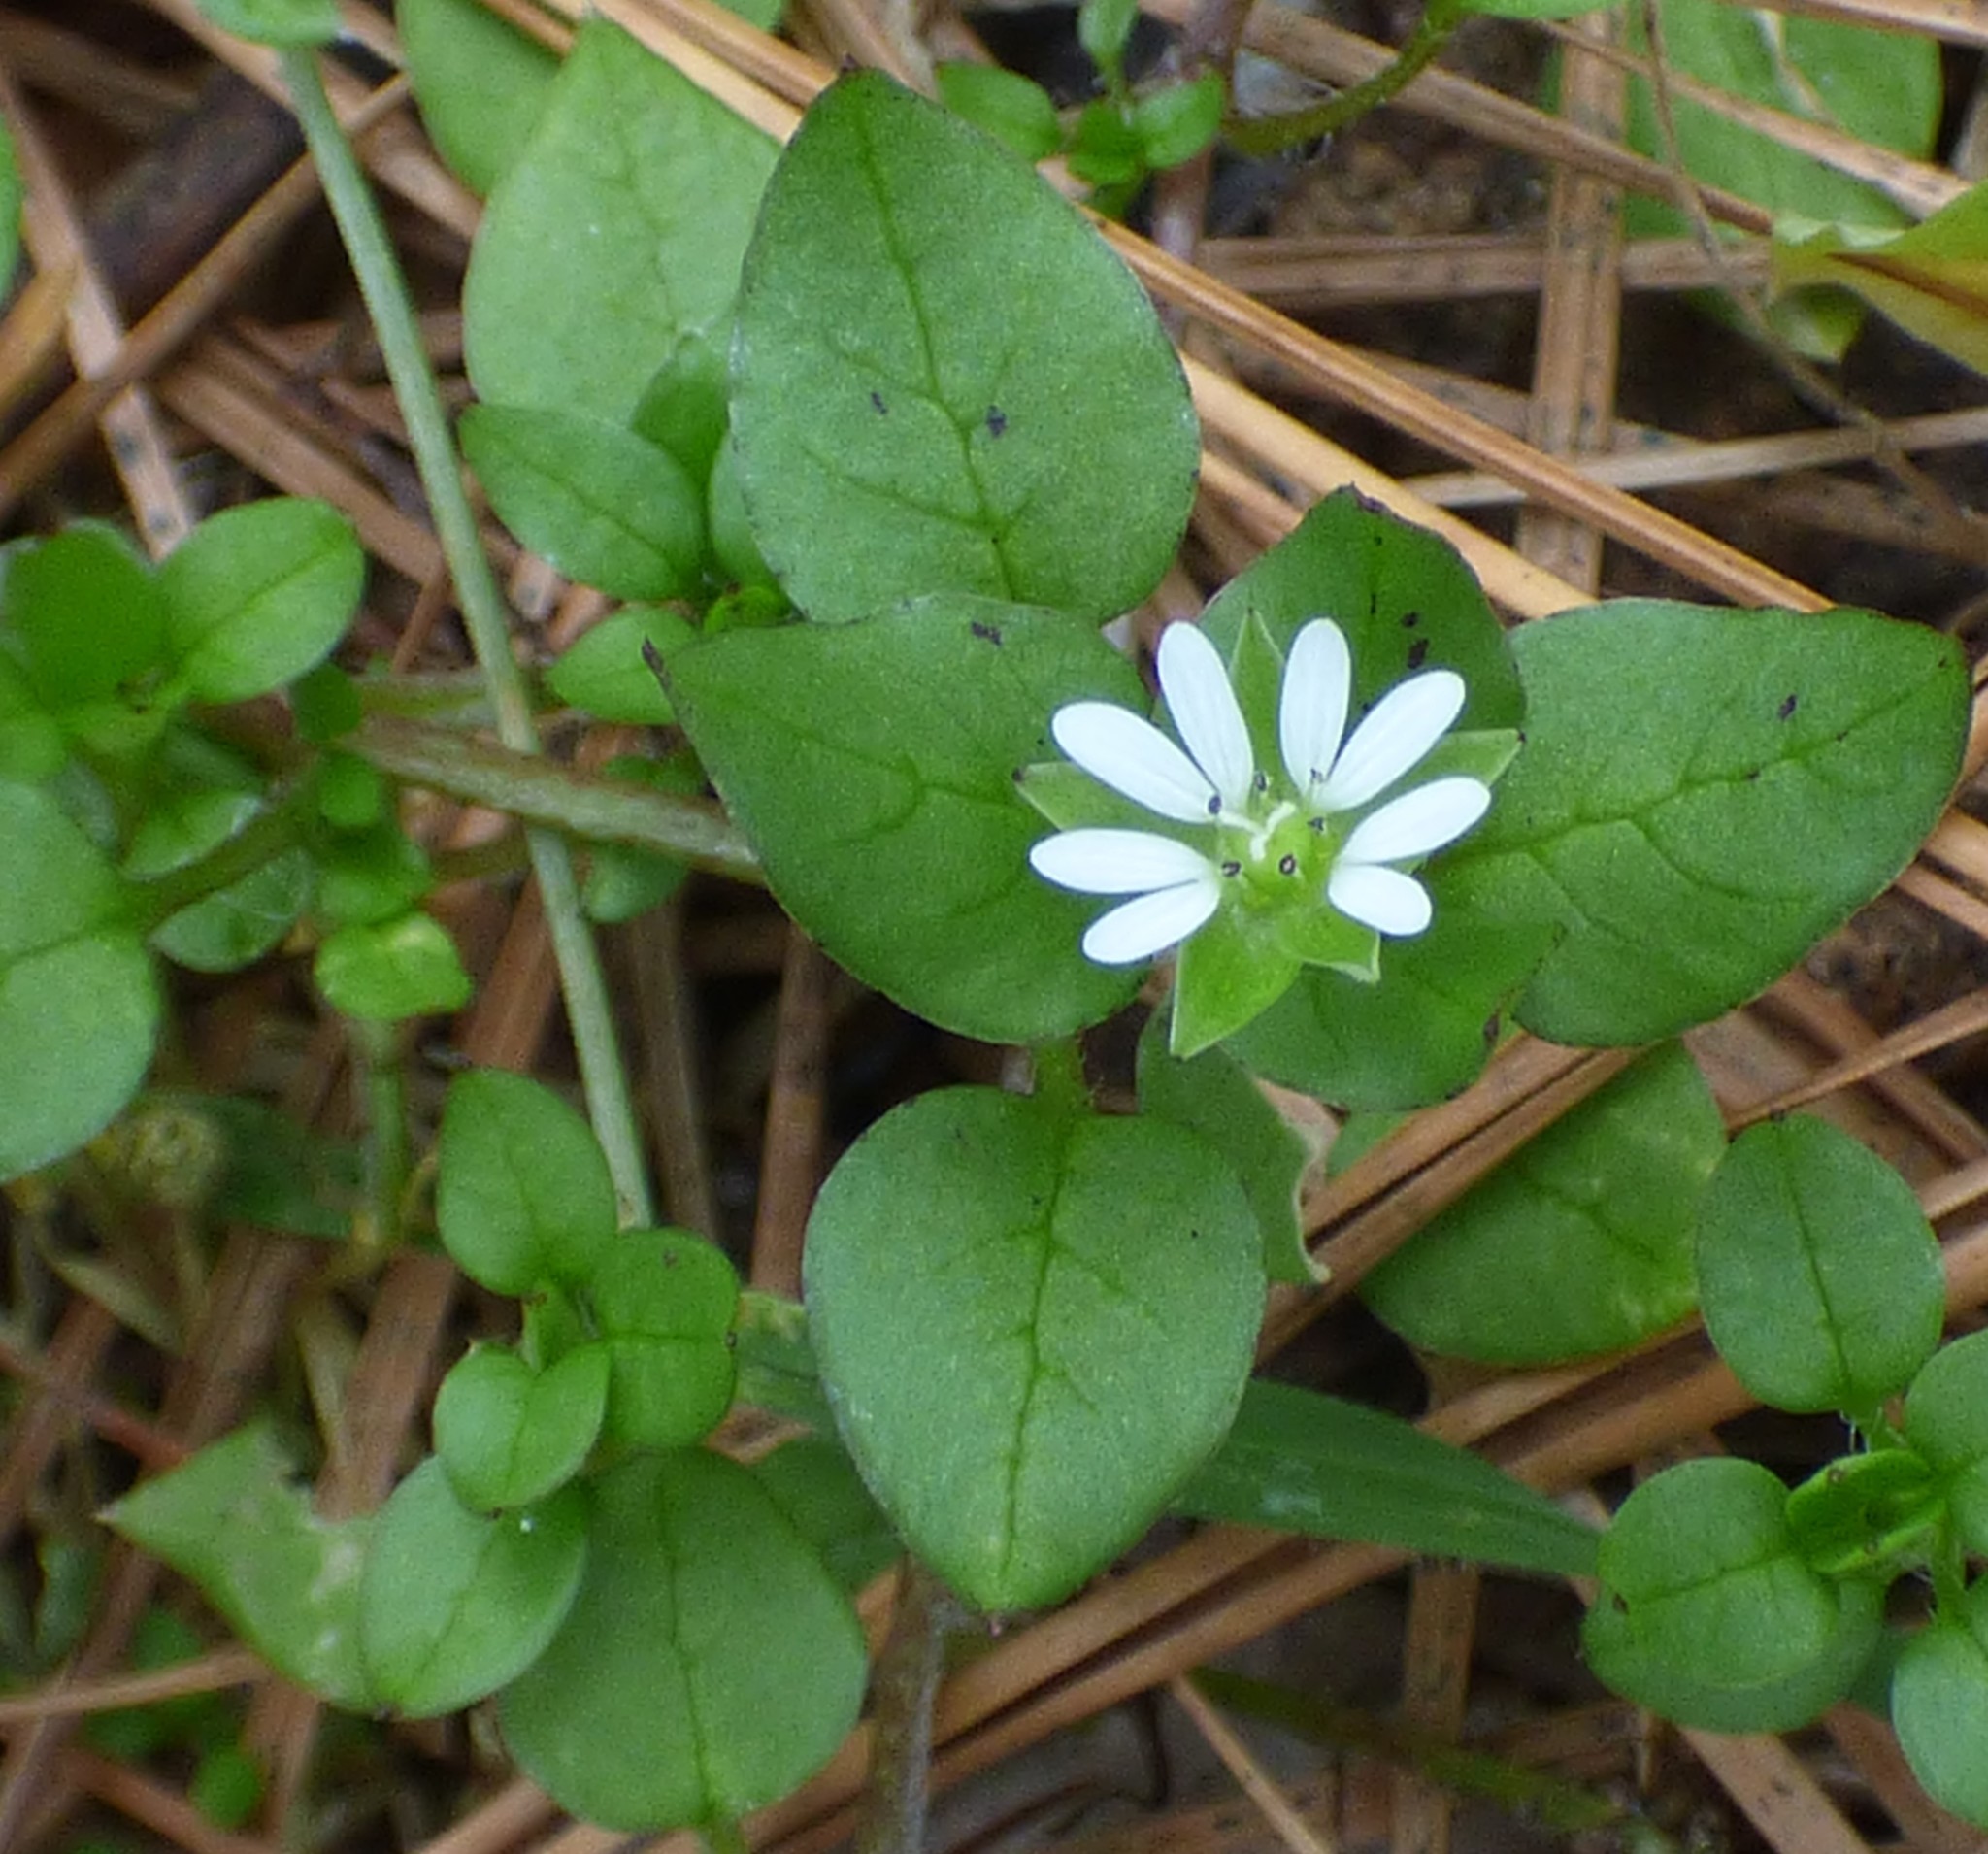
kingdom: Plantae
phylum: Tracheophyta
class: Magnoliopsida
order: Caryophyllales
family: Caryophyllaceae
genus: Stellaria
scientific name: Stellaria media
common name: Common chickweed
